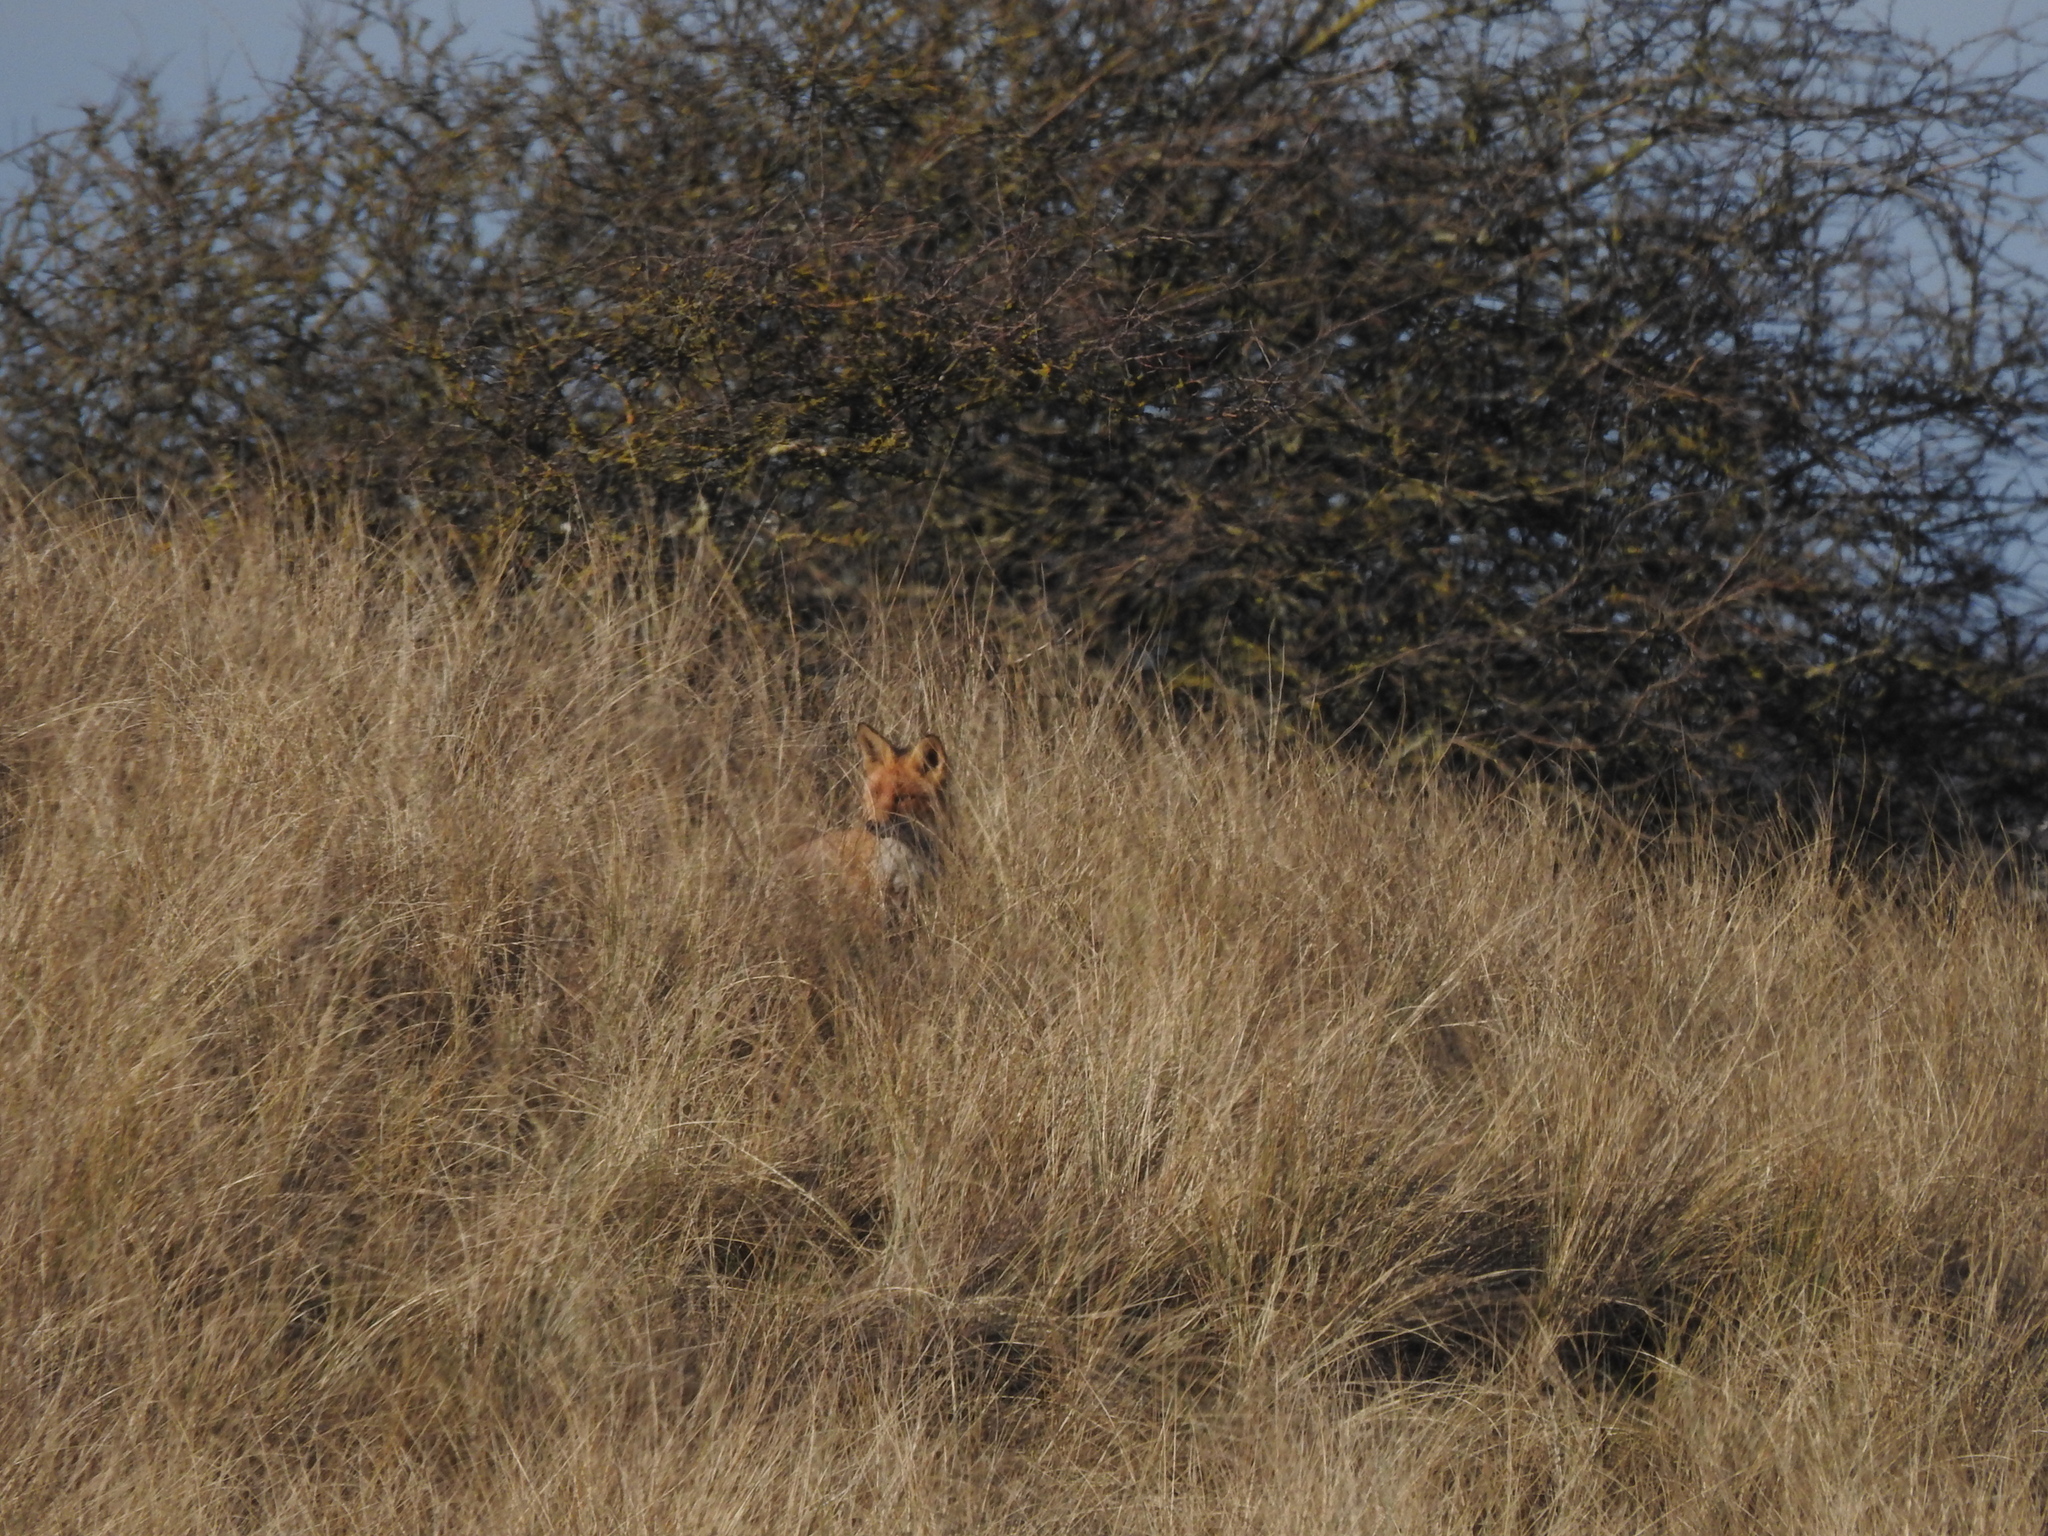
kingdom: Animalia
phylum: Chordata
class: Mammalia
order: Carnivora
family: Canidae
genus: Vulpes
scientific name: Vulpes vulpes
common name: Red fox
